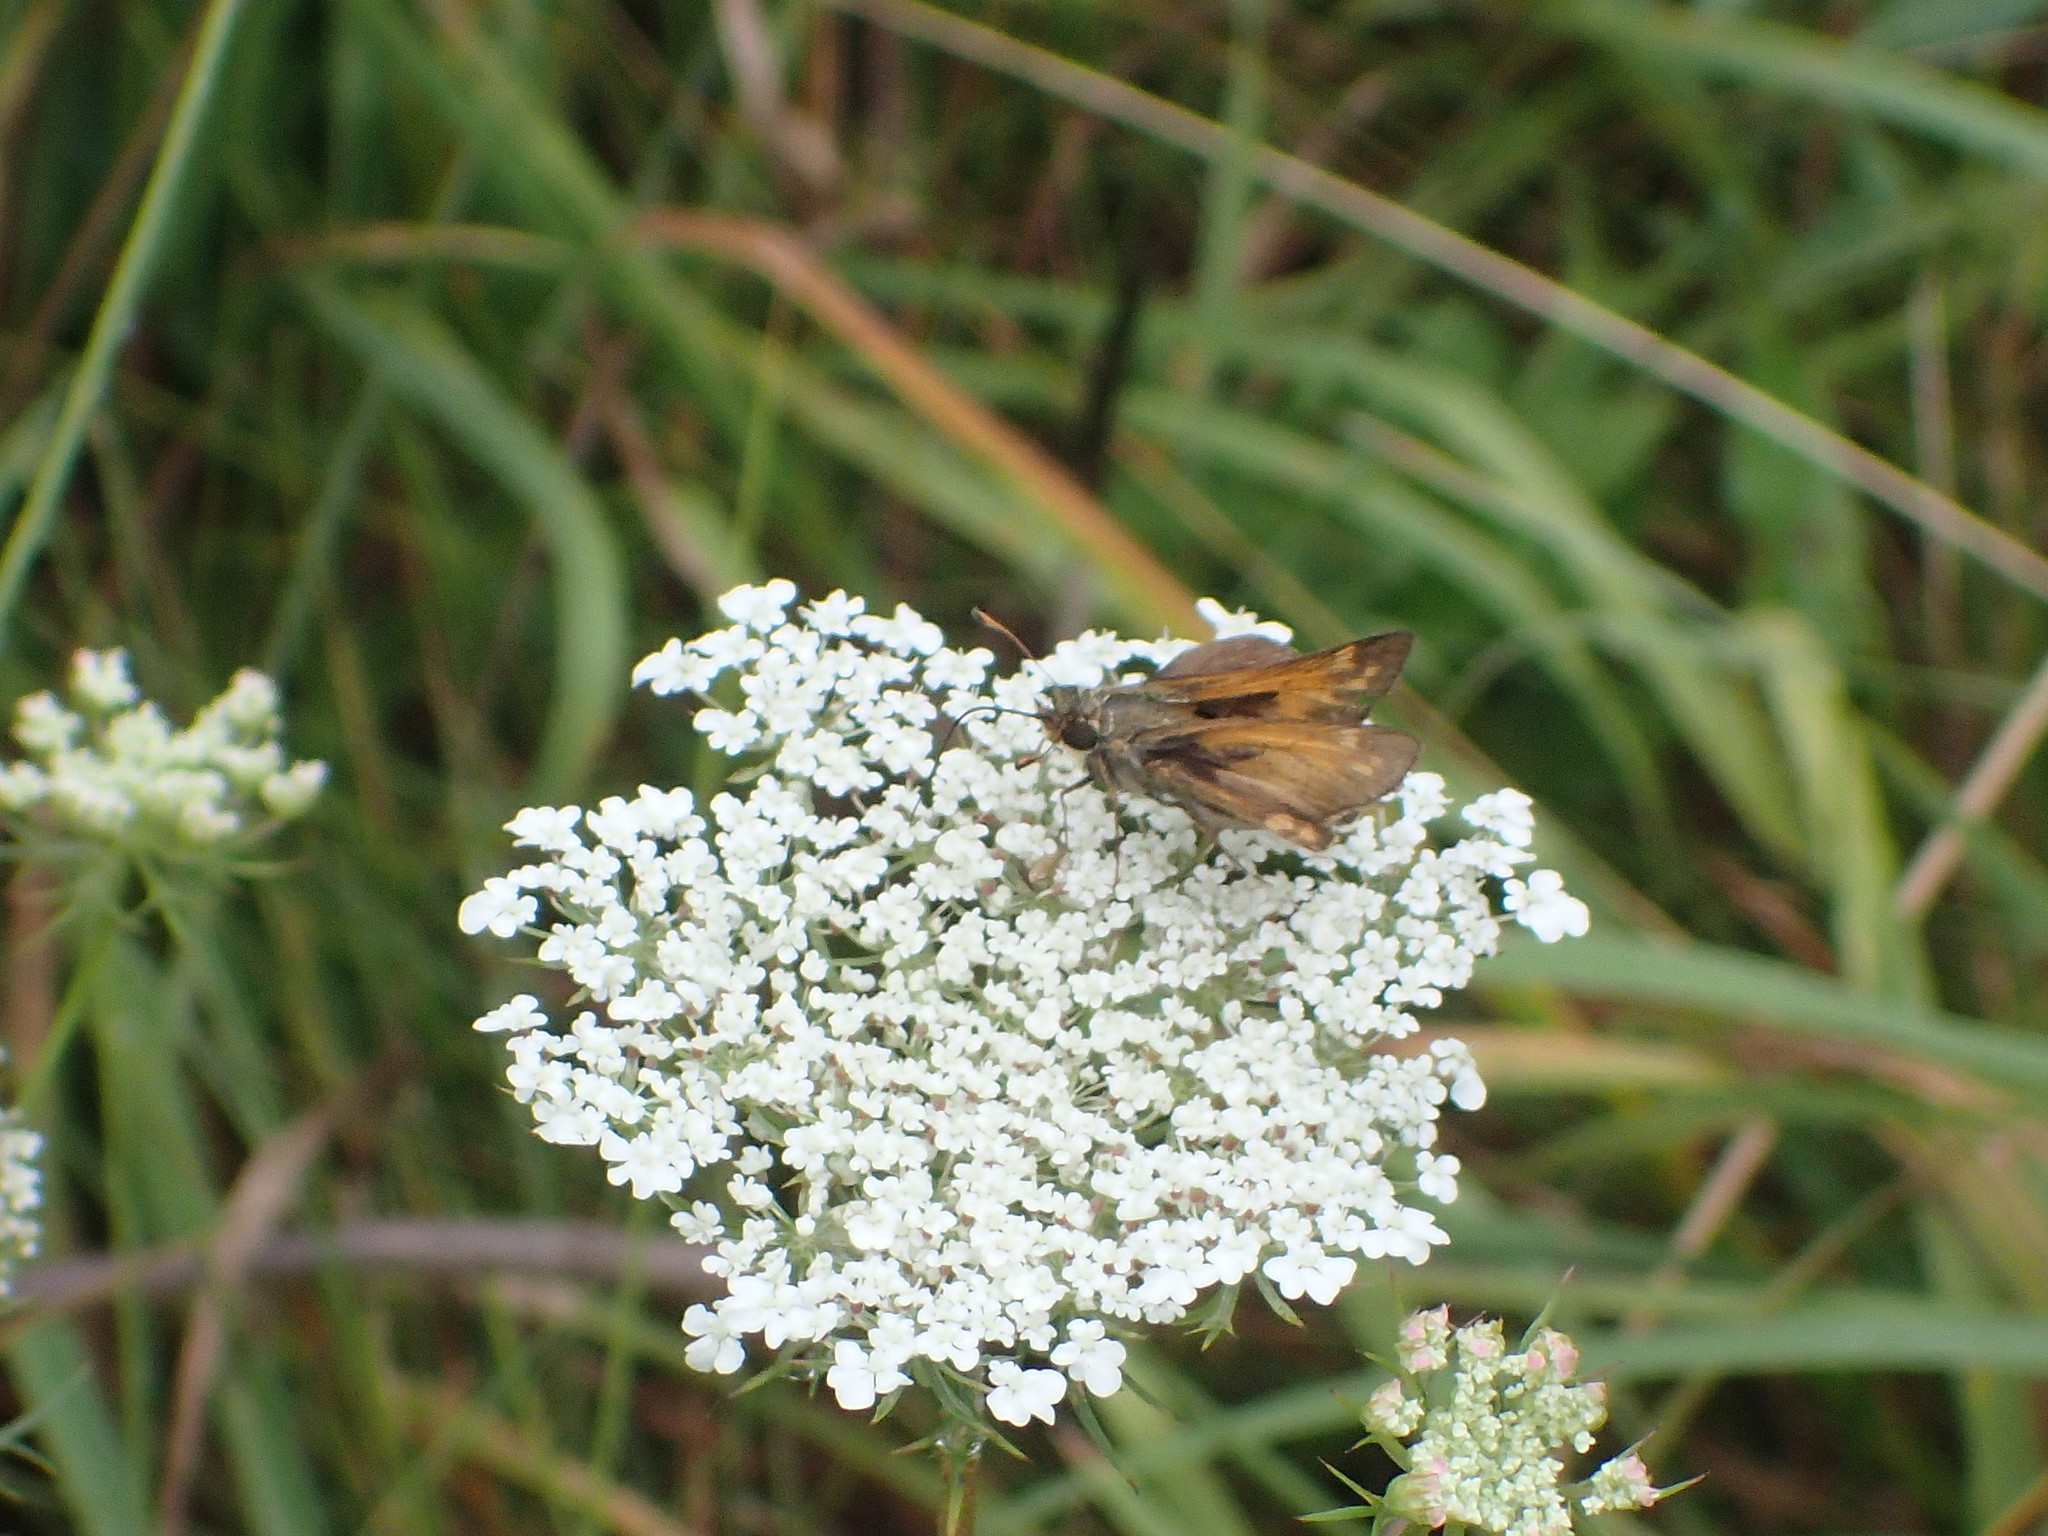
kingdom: Animalia
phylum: Arthropoda
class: Insecta
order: Lepidoptera
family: Hesperiidae
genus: Atalopedes
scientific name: Atalopedes
